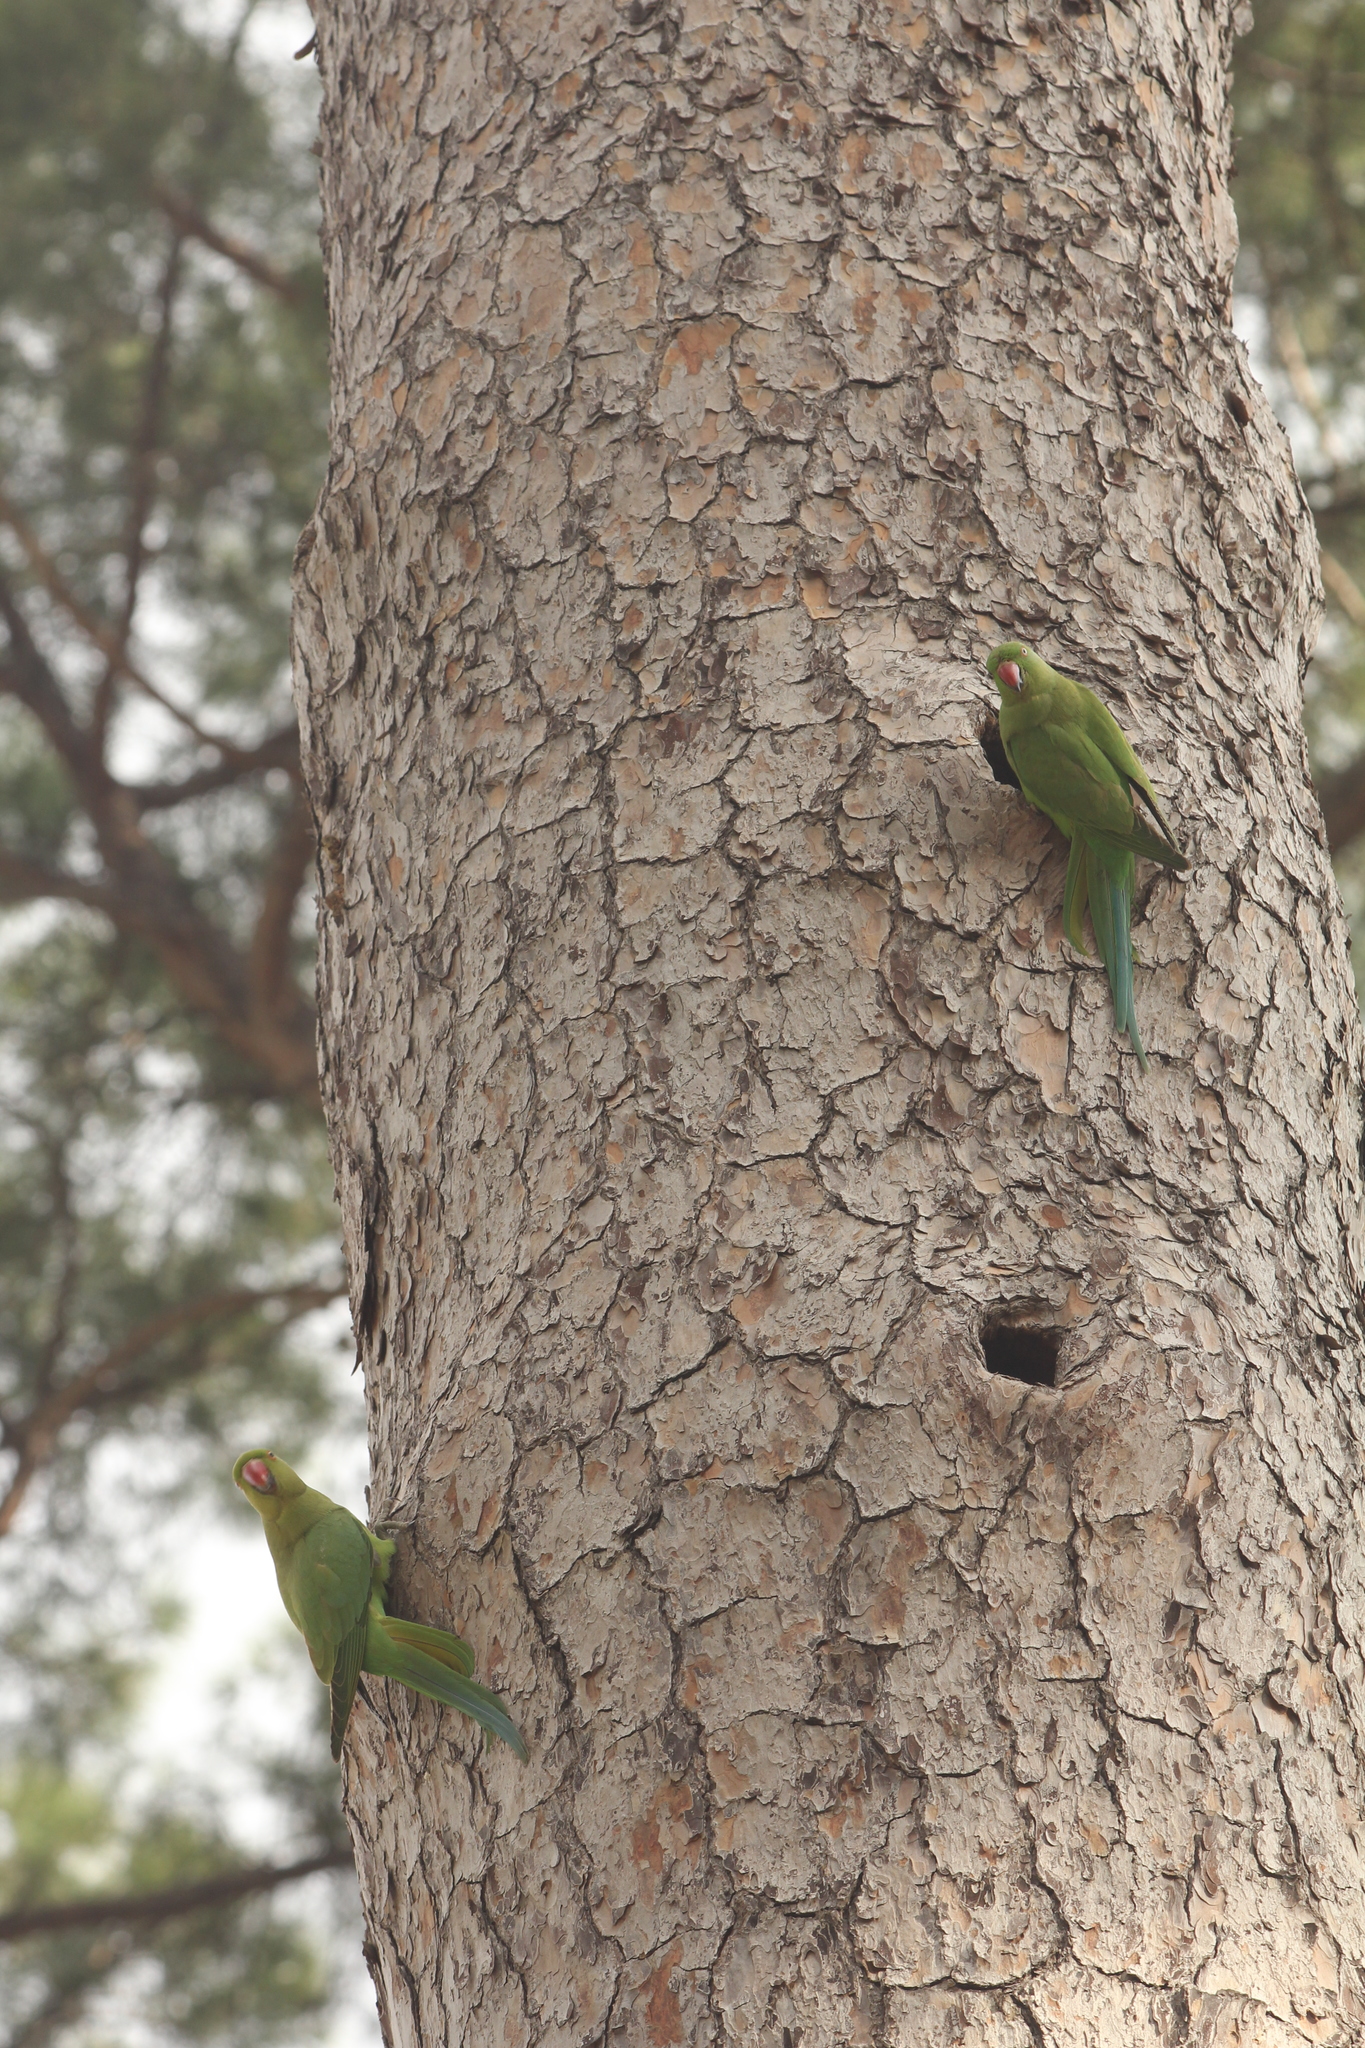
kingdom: Animalia
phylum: Chordata
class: Aves
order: Psittaciformes
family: Psittacidae
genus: Psittacula
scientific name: Psittacula krameri
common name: Rose-ringed parakeet
